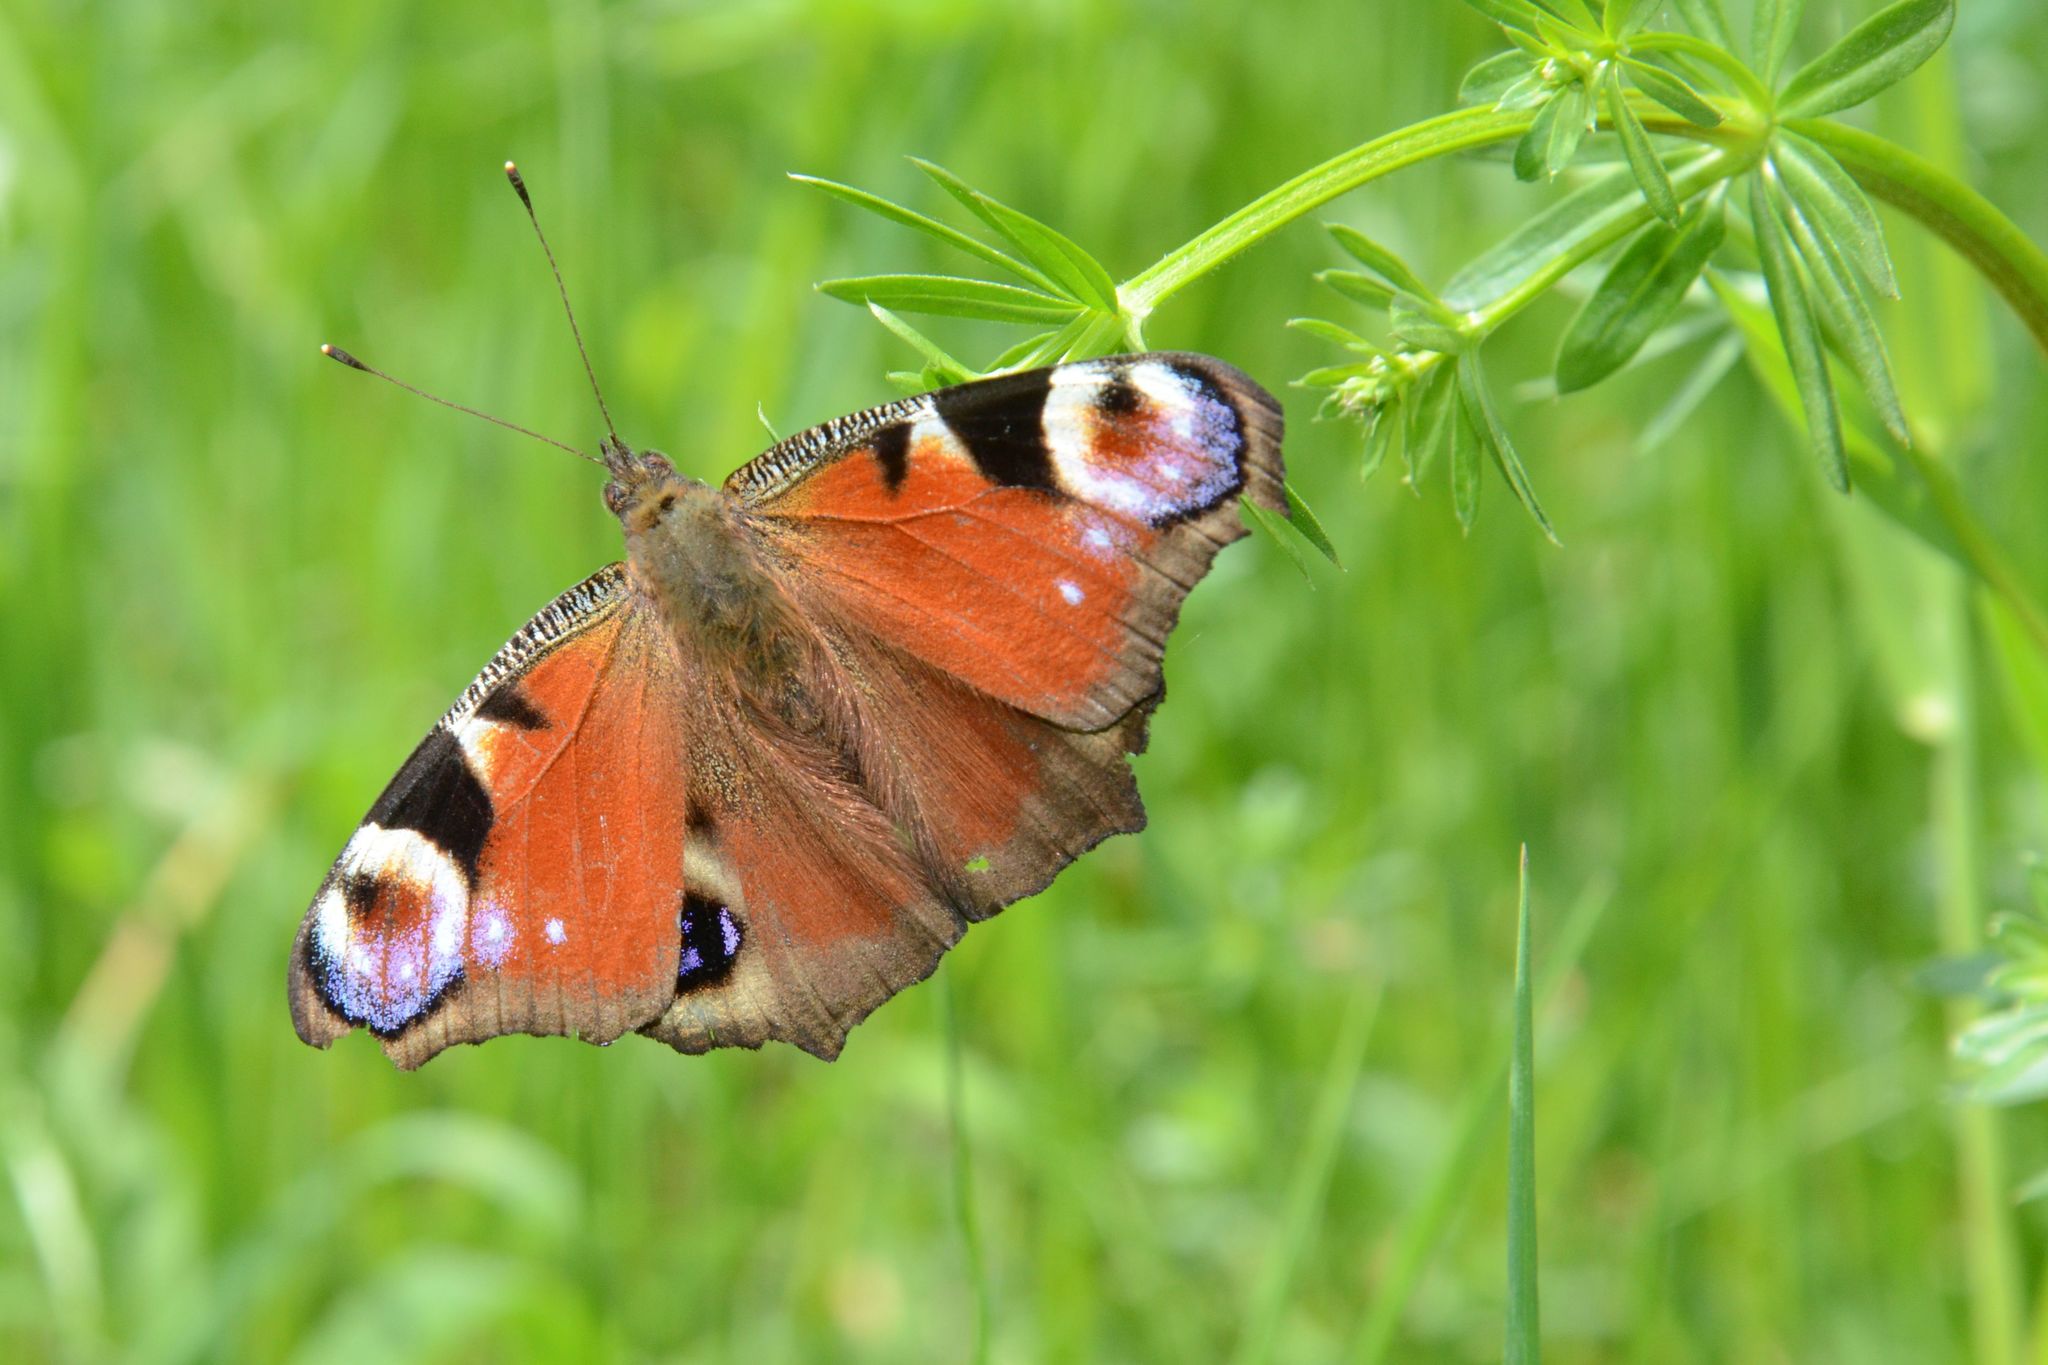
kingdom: Animalia
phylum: Arthropoda
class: Insecta
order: Lepidoptera
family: Nymphalidae
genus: Aglais
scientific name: Aglais io
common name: Peacock
